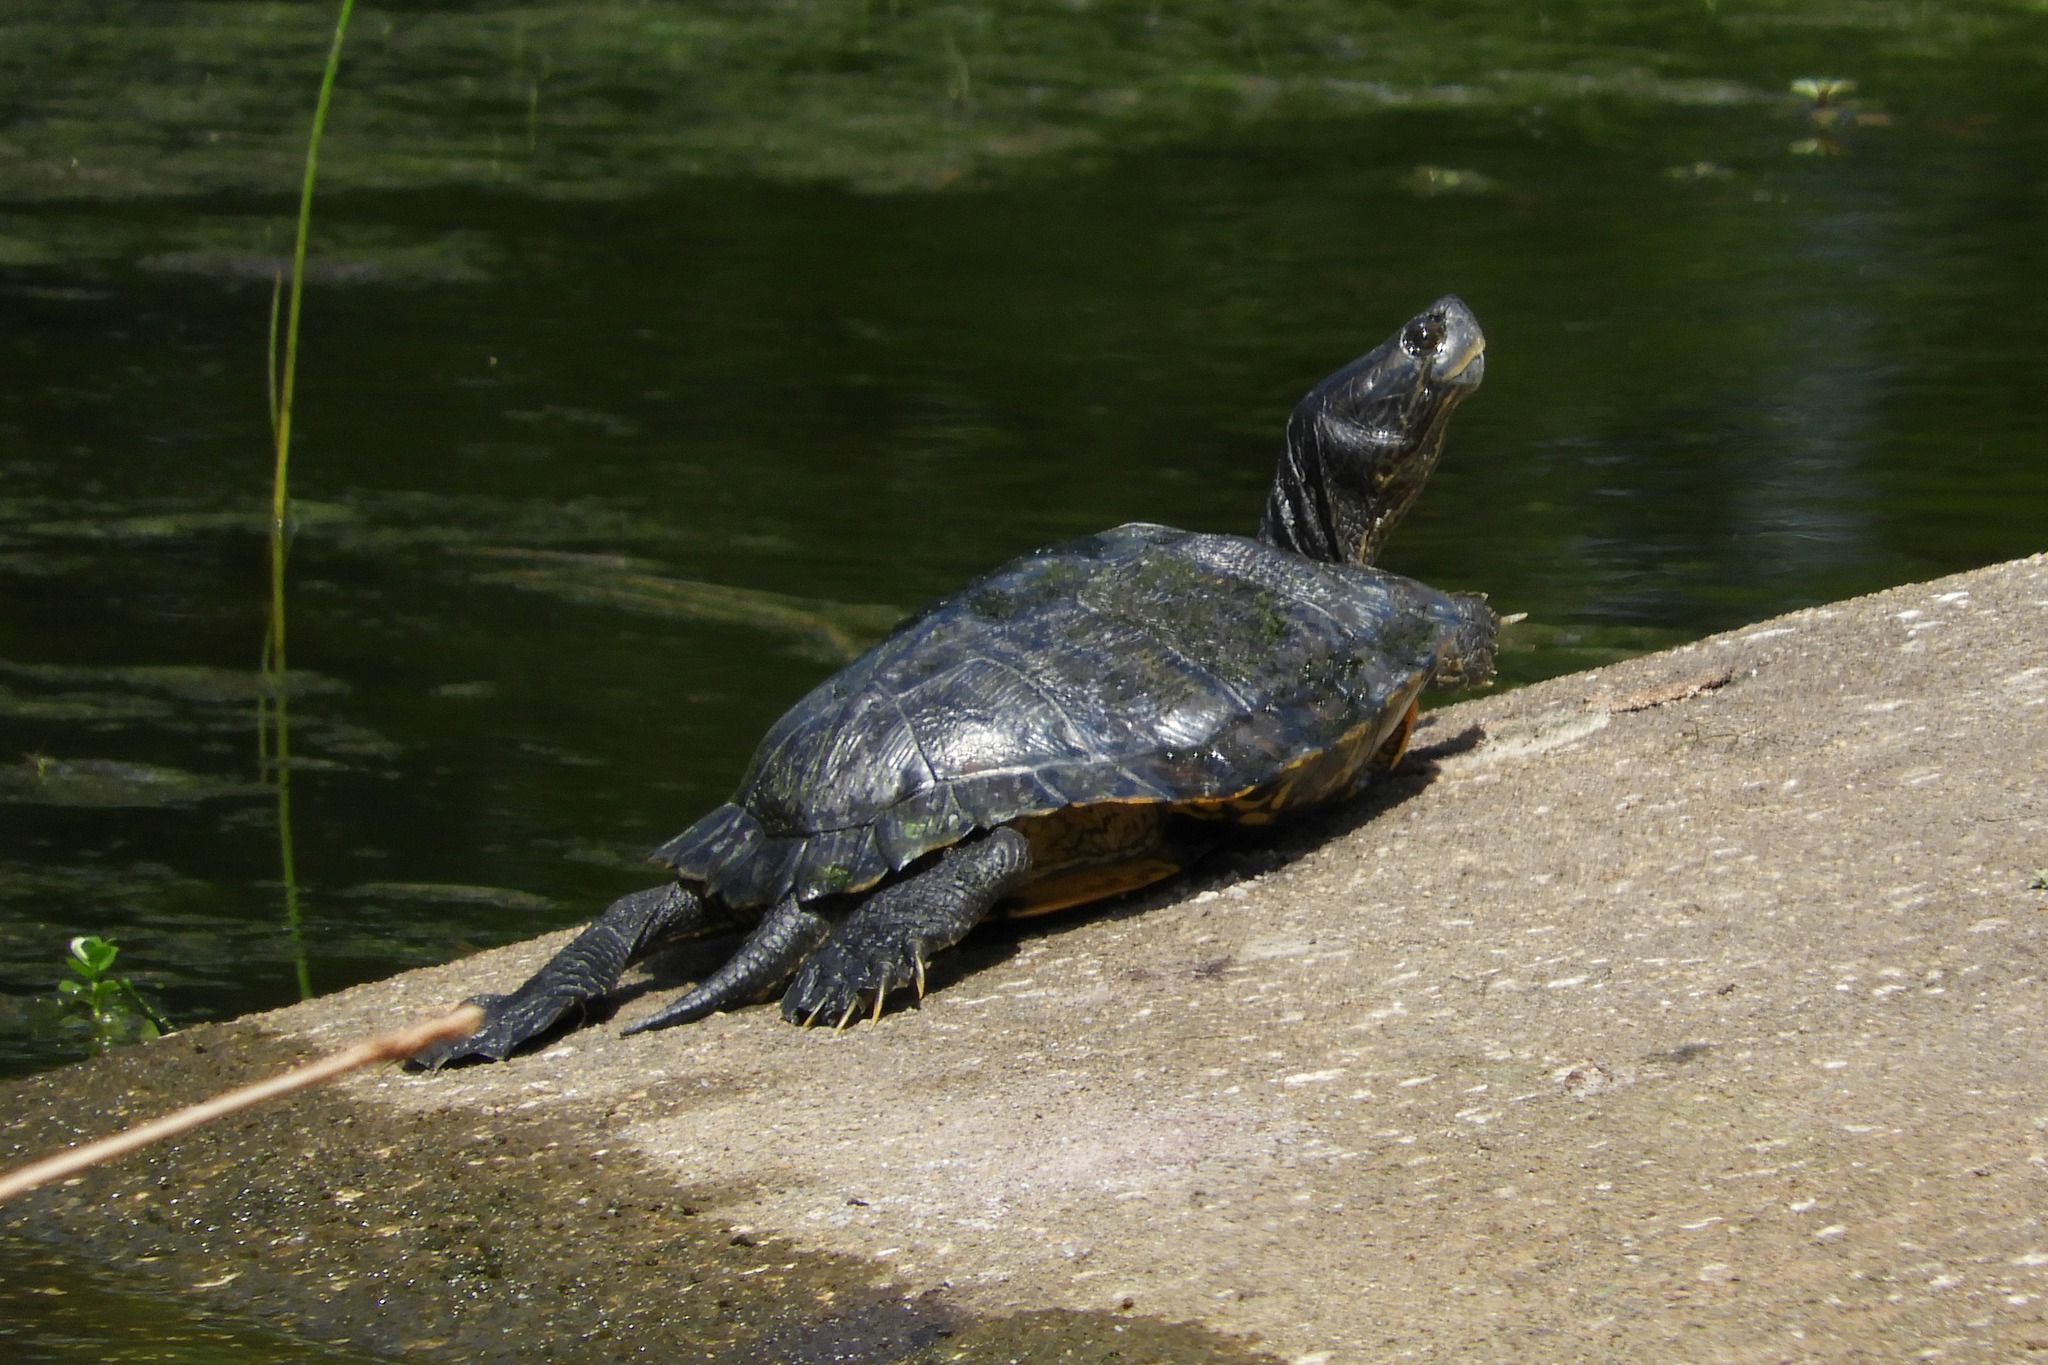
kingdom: Animalia
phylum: Chordata
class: Testudines
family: Emydidae
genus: Trachemys
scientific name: Trachemys scripta
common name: Slider
